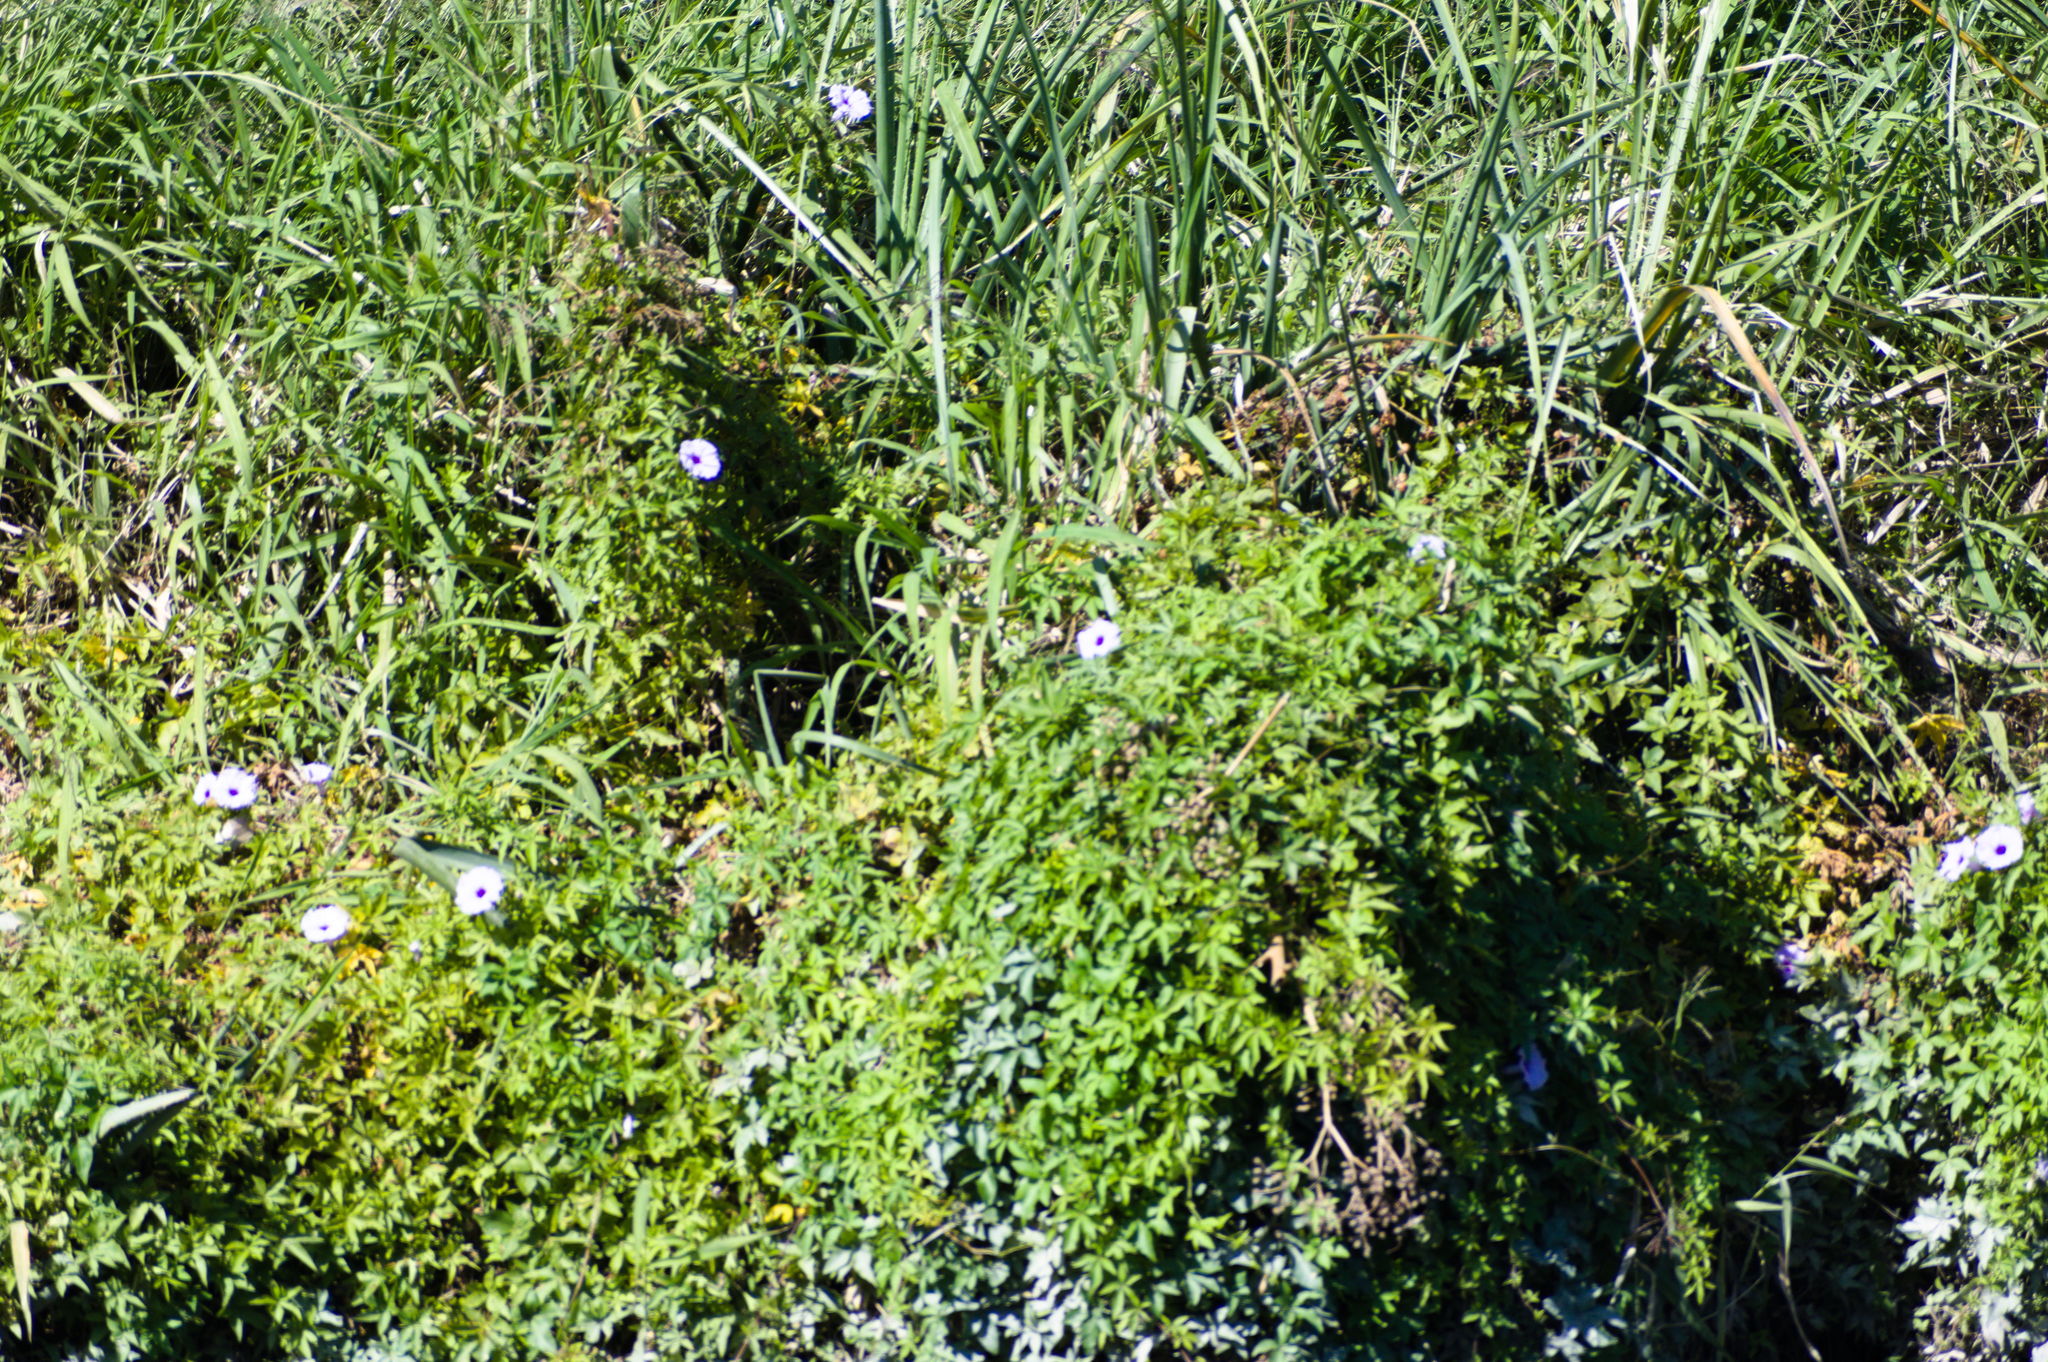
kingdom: Plantae
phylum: Tracheophyta
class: Magnoliopsida
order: Solanales
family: Convolvulaceae
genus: Ipomoea
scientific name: Ipomoea cairica
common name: Mile a minute vine
